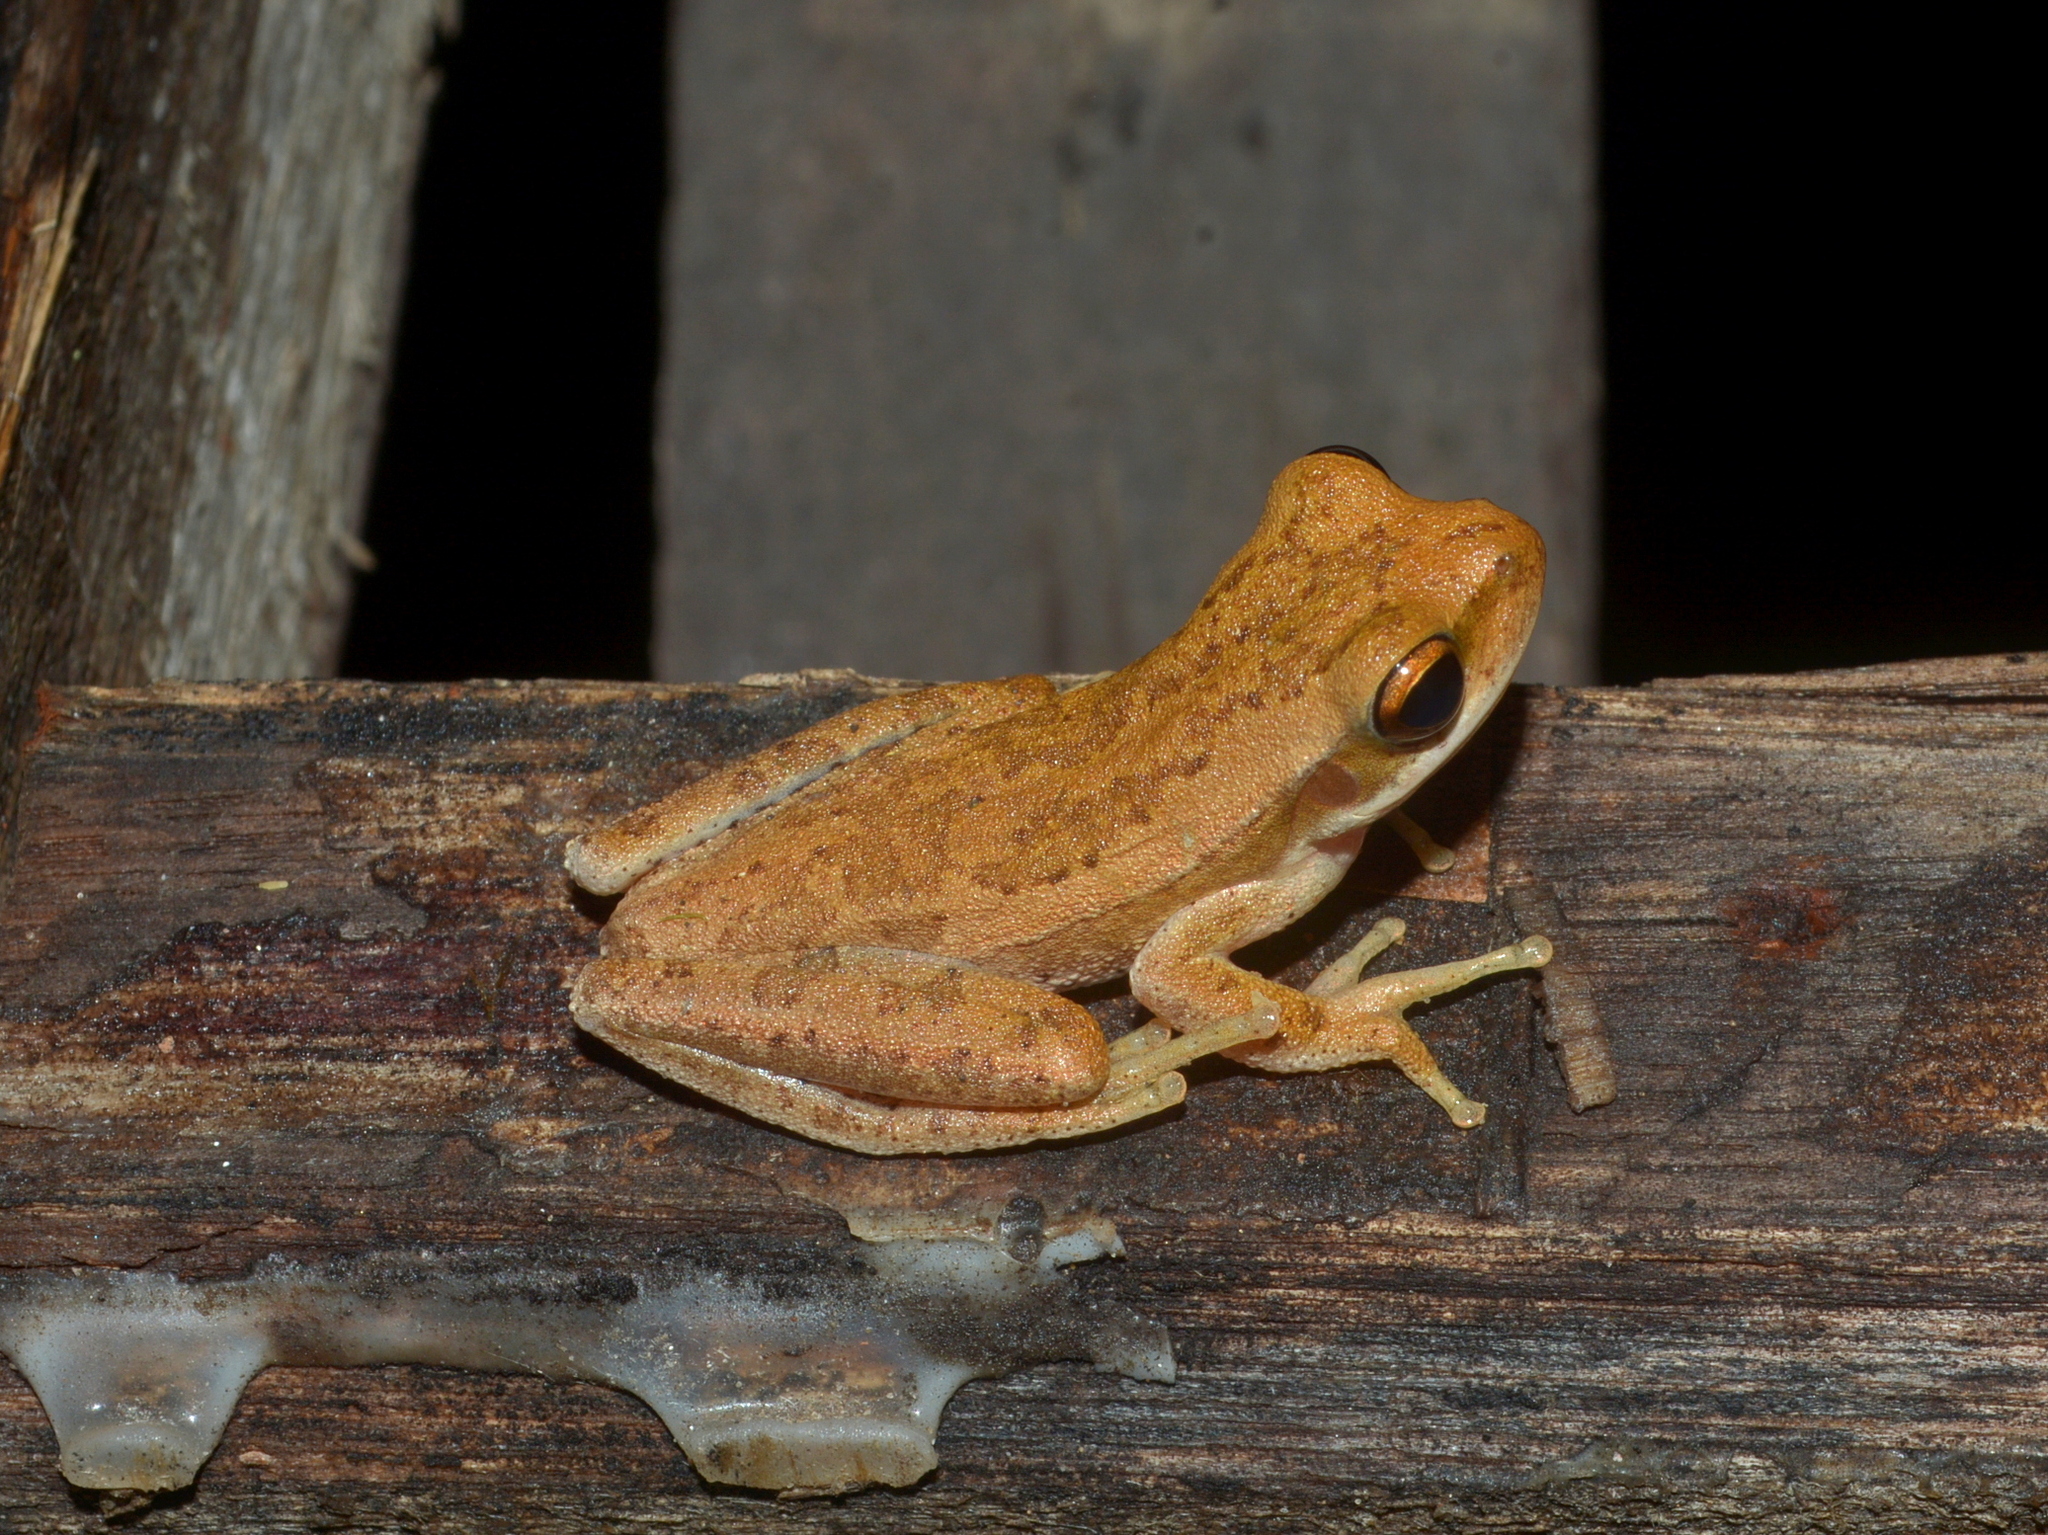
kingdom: Animalia
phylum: Chordata
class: Amphibia
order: Anura
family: Hylidae
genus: Boana
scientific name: Boana pulchella
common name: Montevideo treefrog
